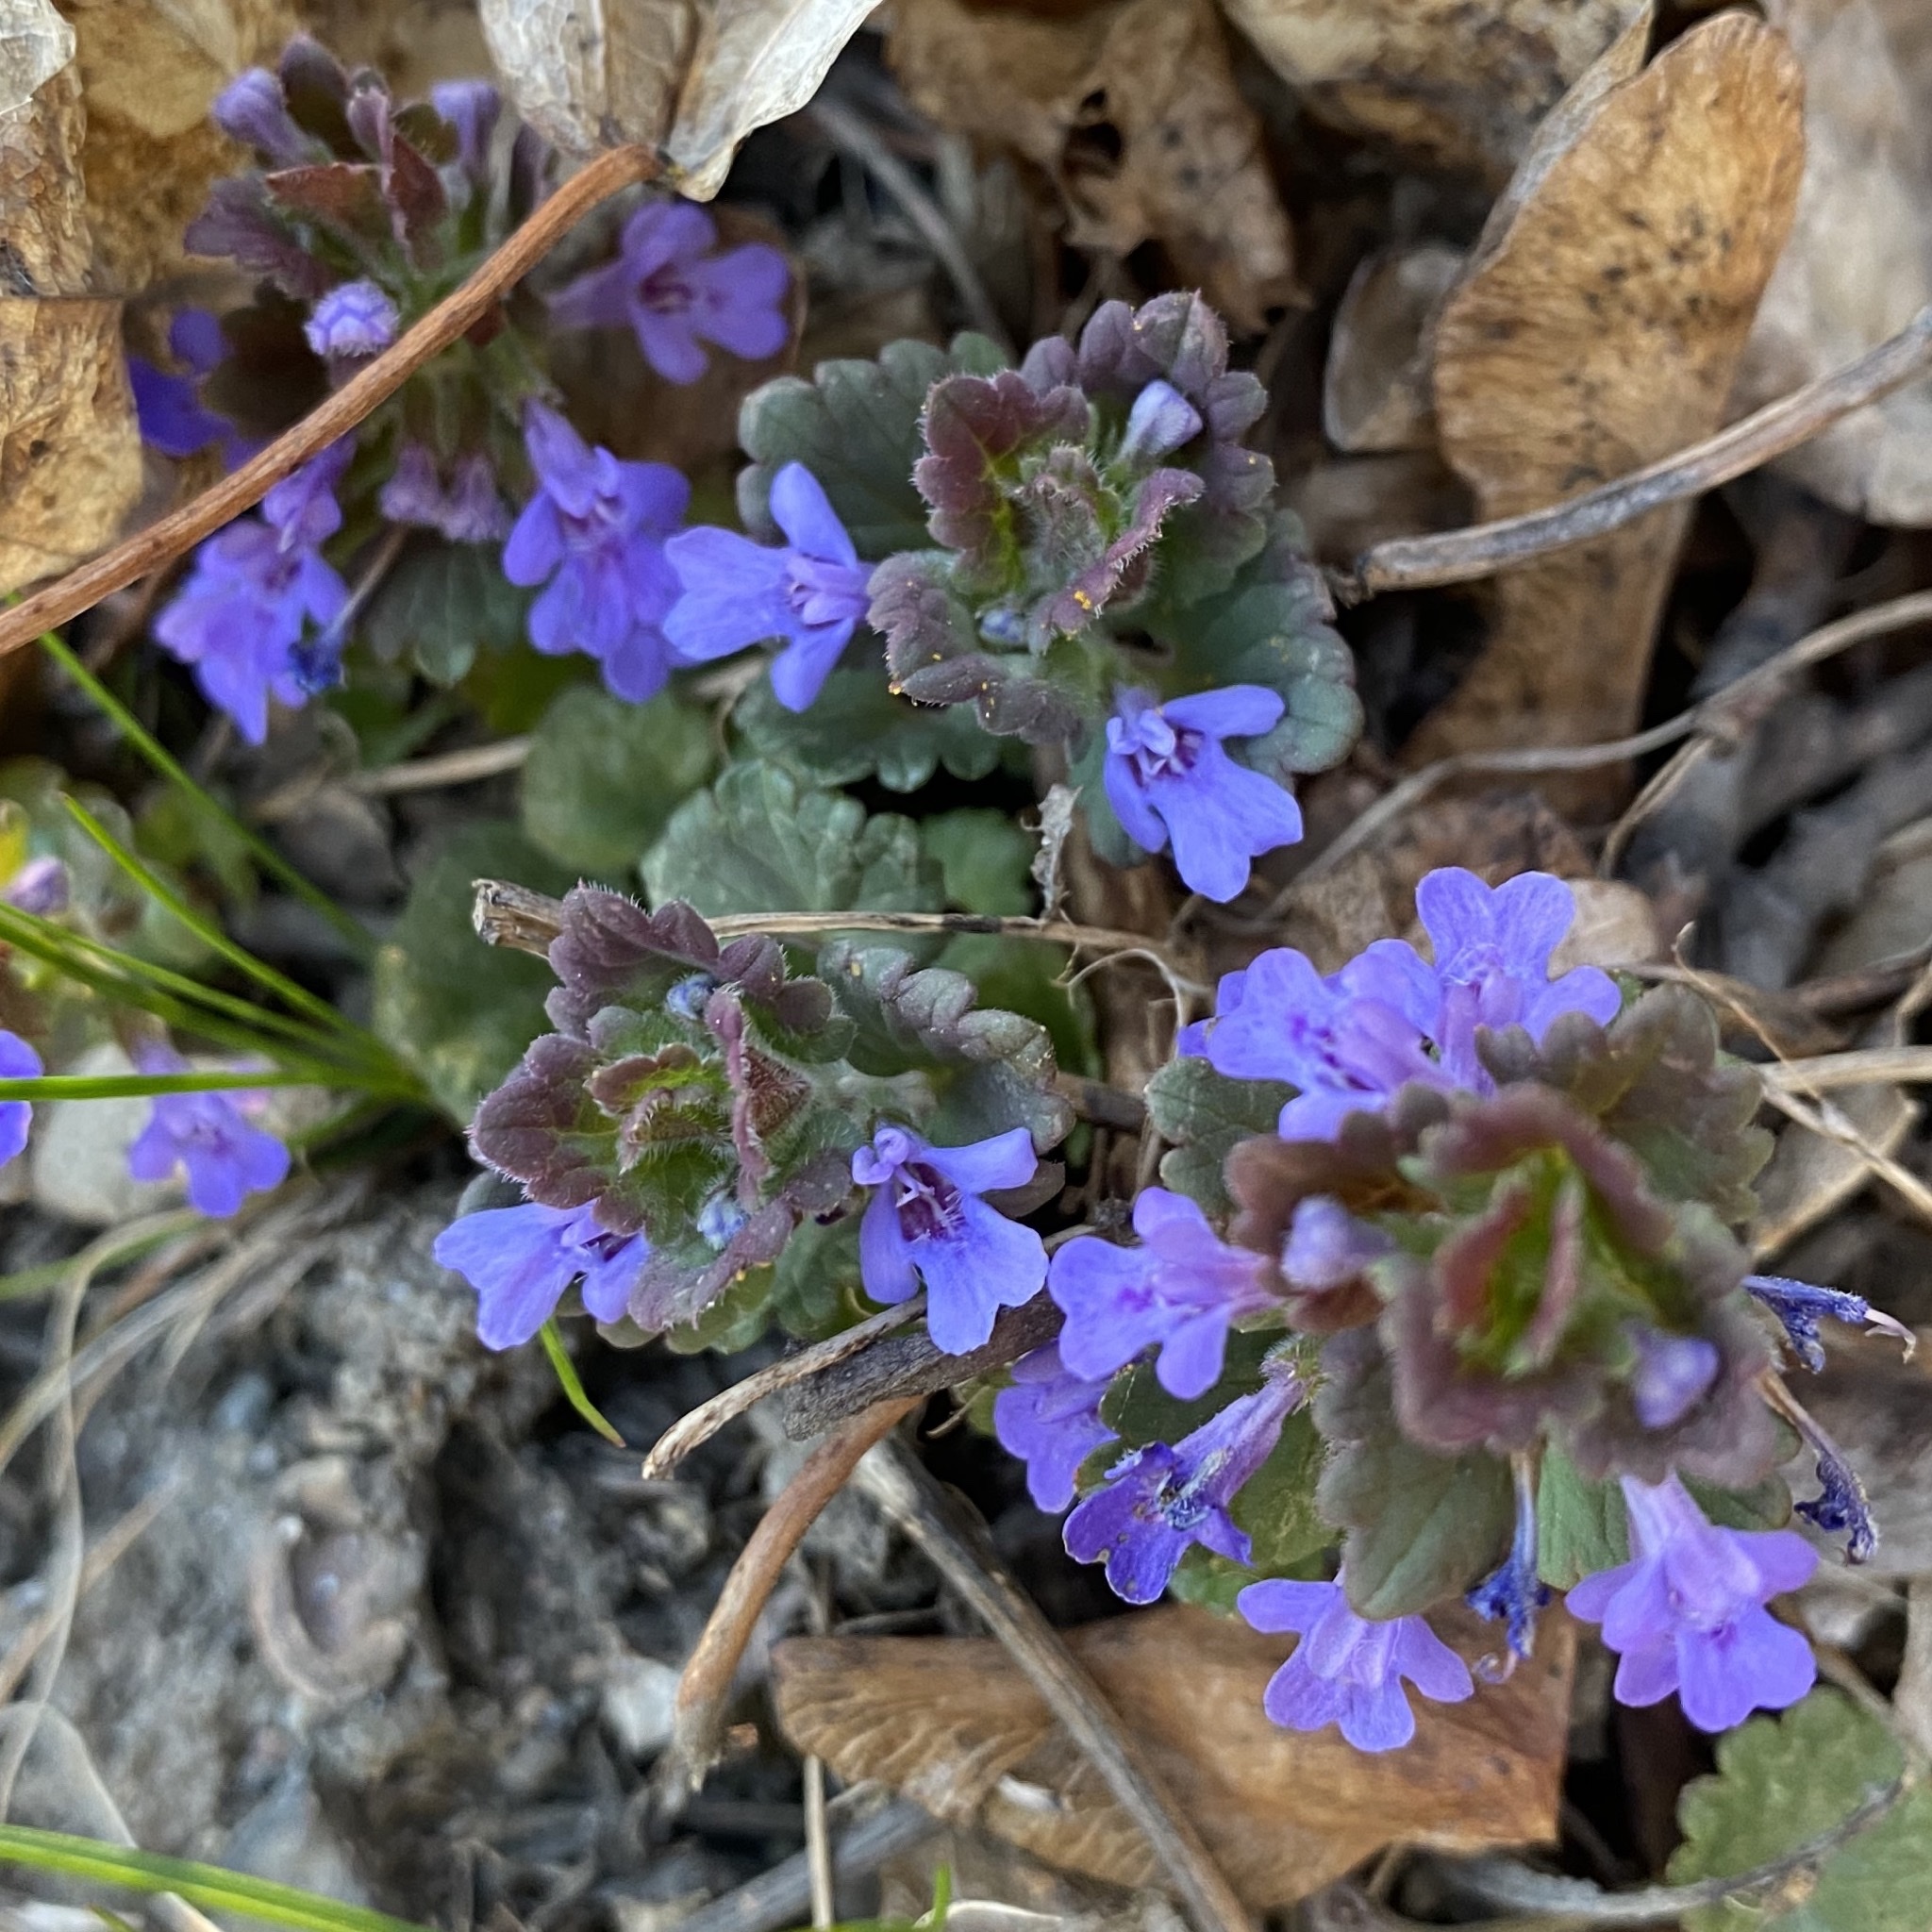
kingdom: Plantae
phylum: Tracheophyta
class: Magnoliopsida
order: Lamiales
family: Lamiaceae
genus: Glechoma
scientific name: Glechoma hederacea
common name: Ground ivy
